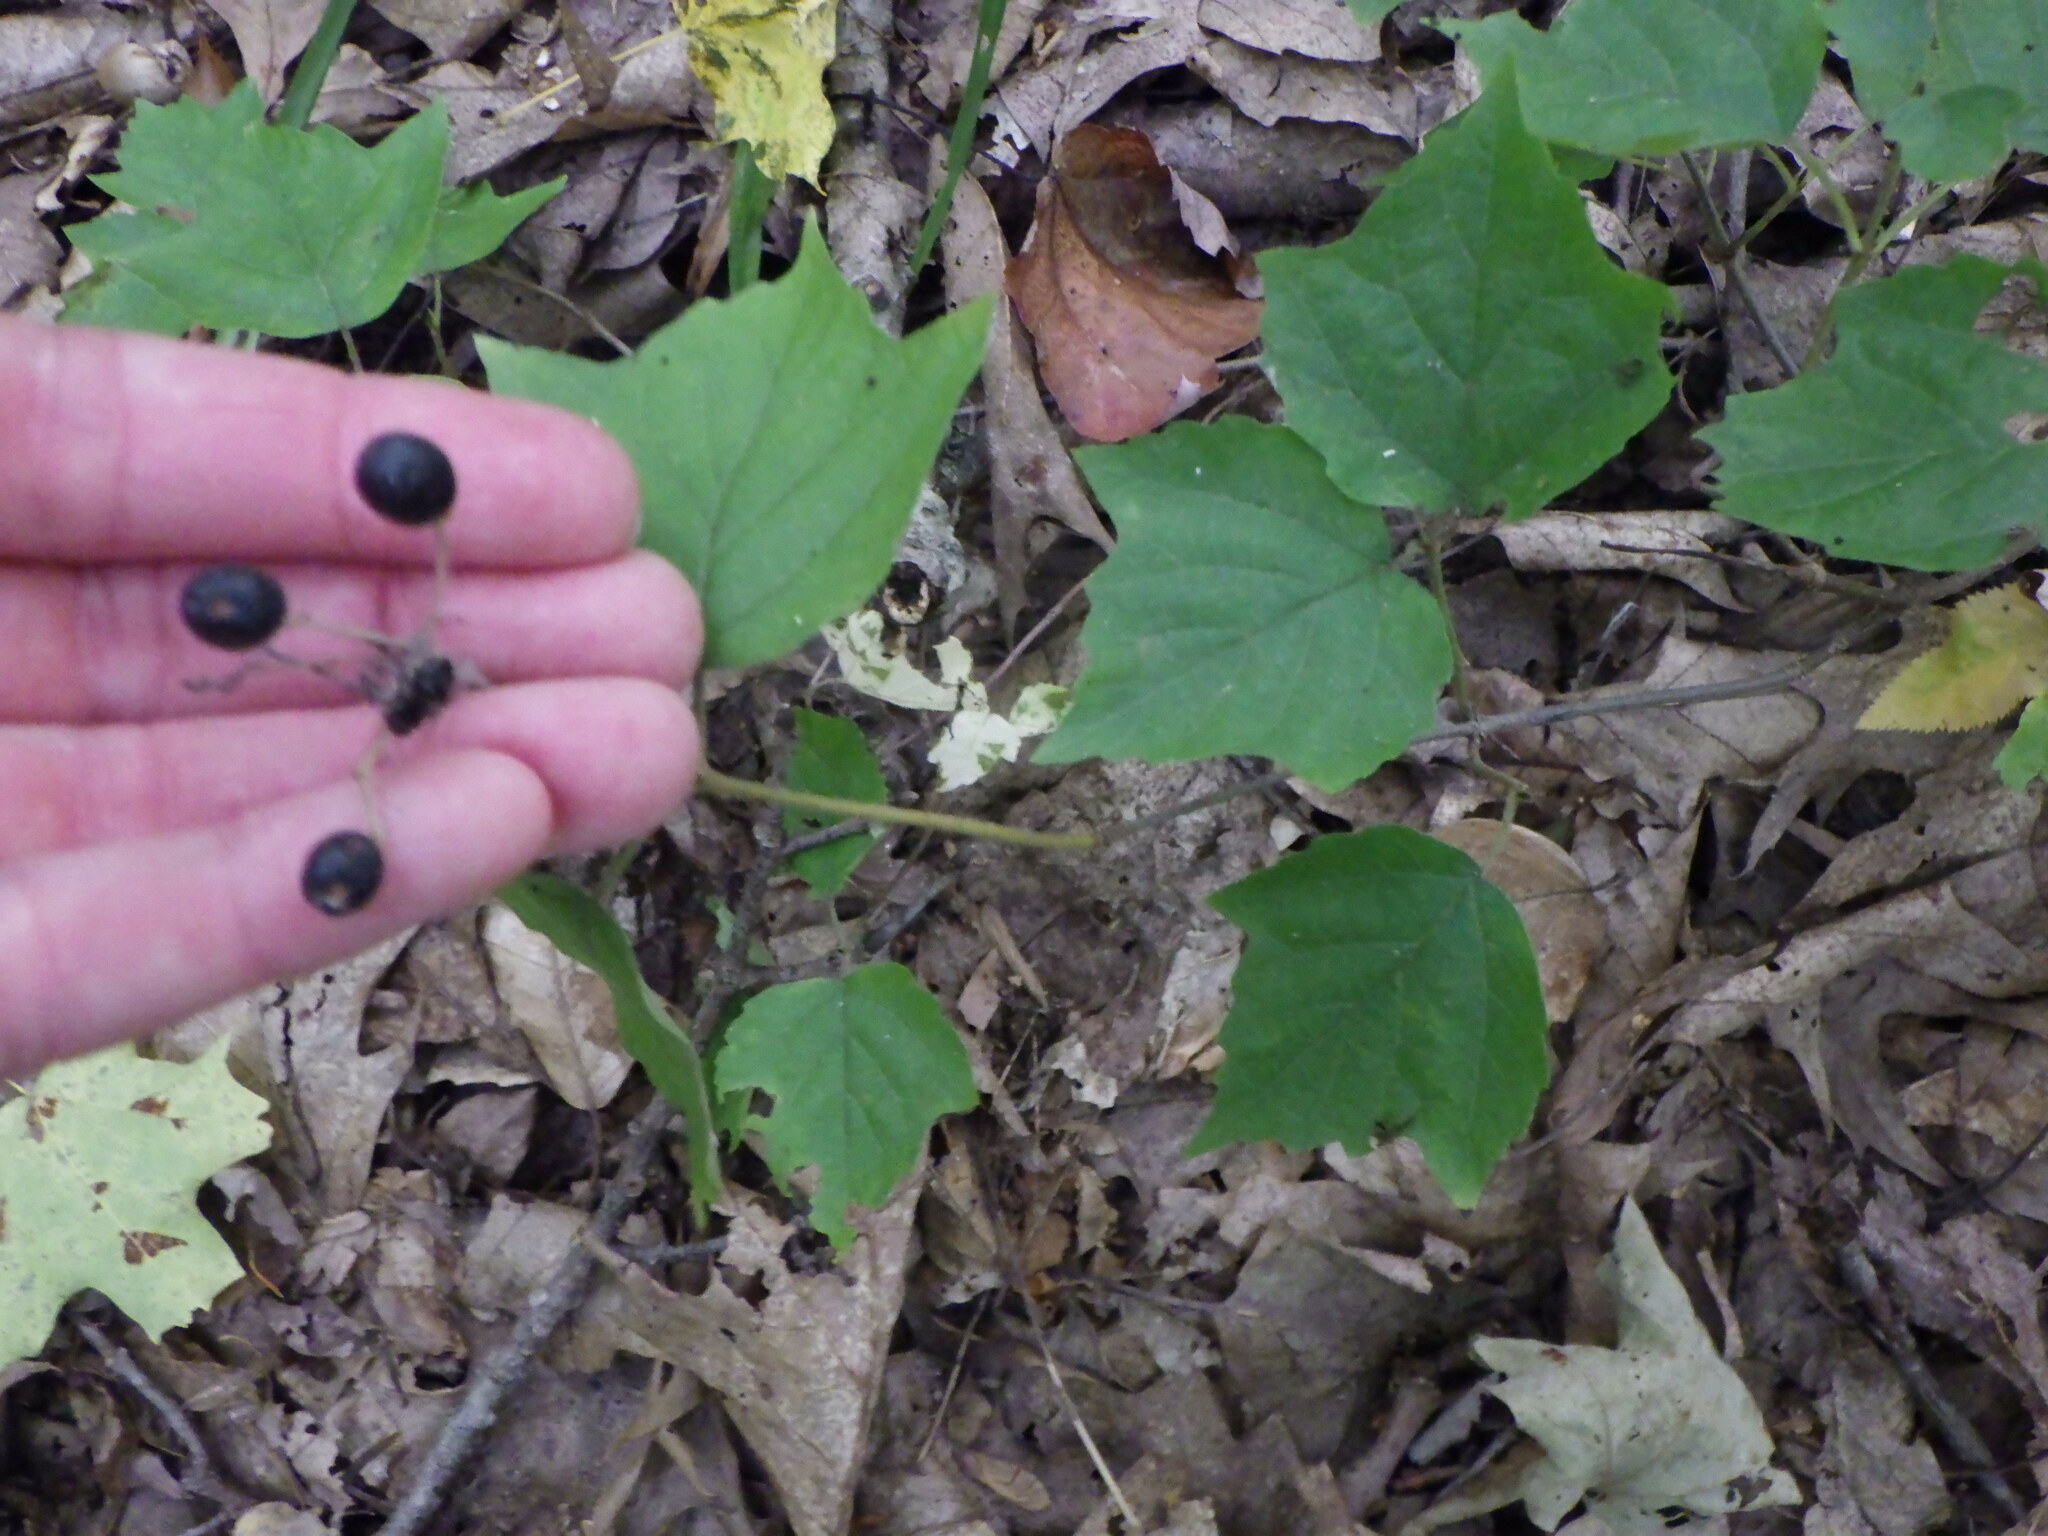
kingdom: Plantae
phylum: Tracheophyta
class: Magnoliopsida
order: Dipsacales
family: Viburnaceae
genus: Viburnum
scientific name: Viburnum acerifolium
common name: Dockmackie
